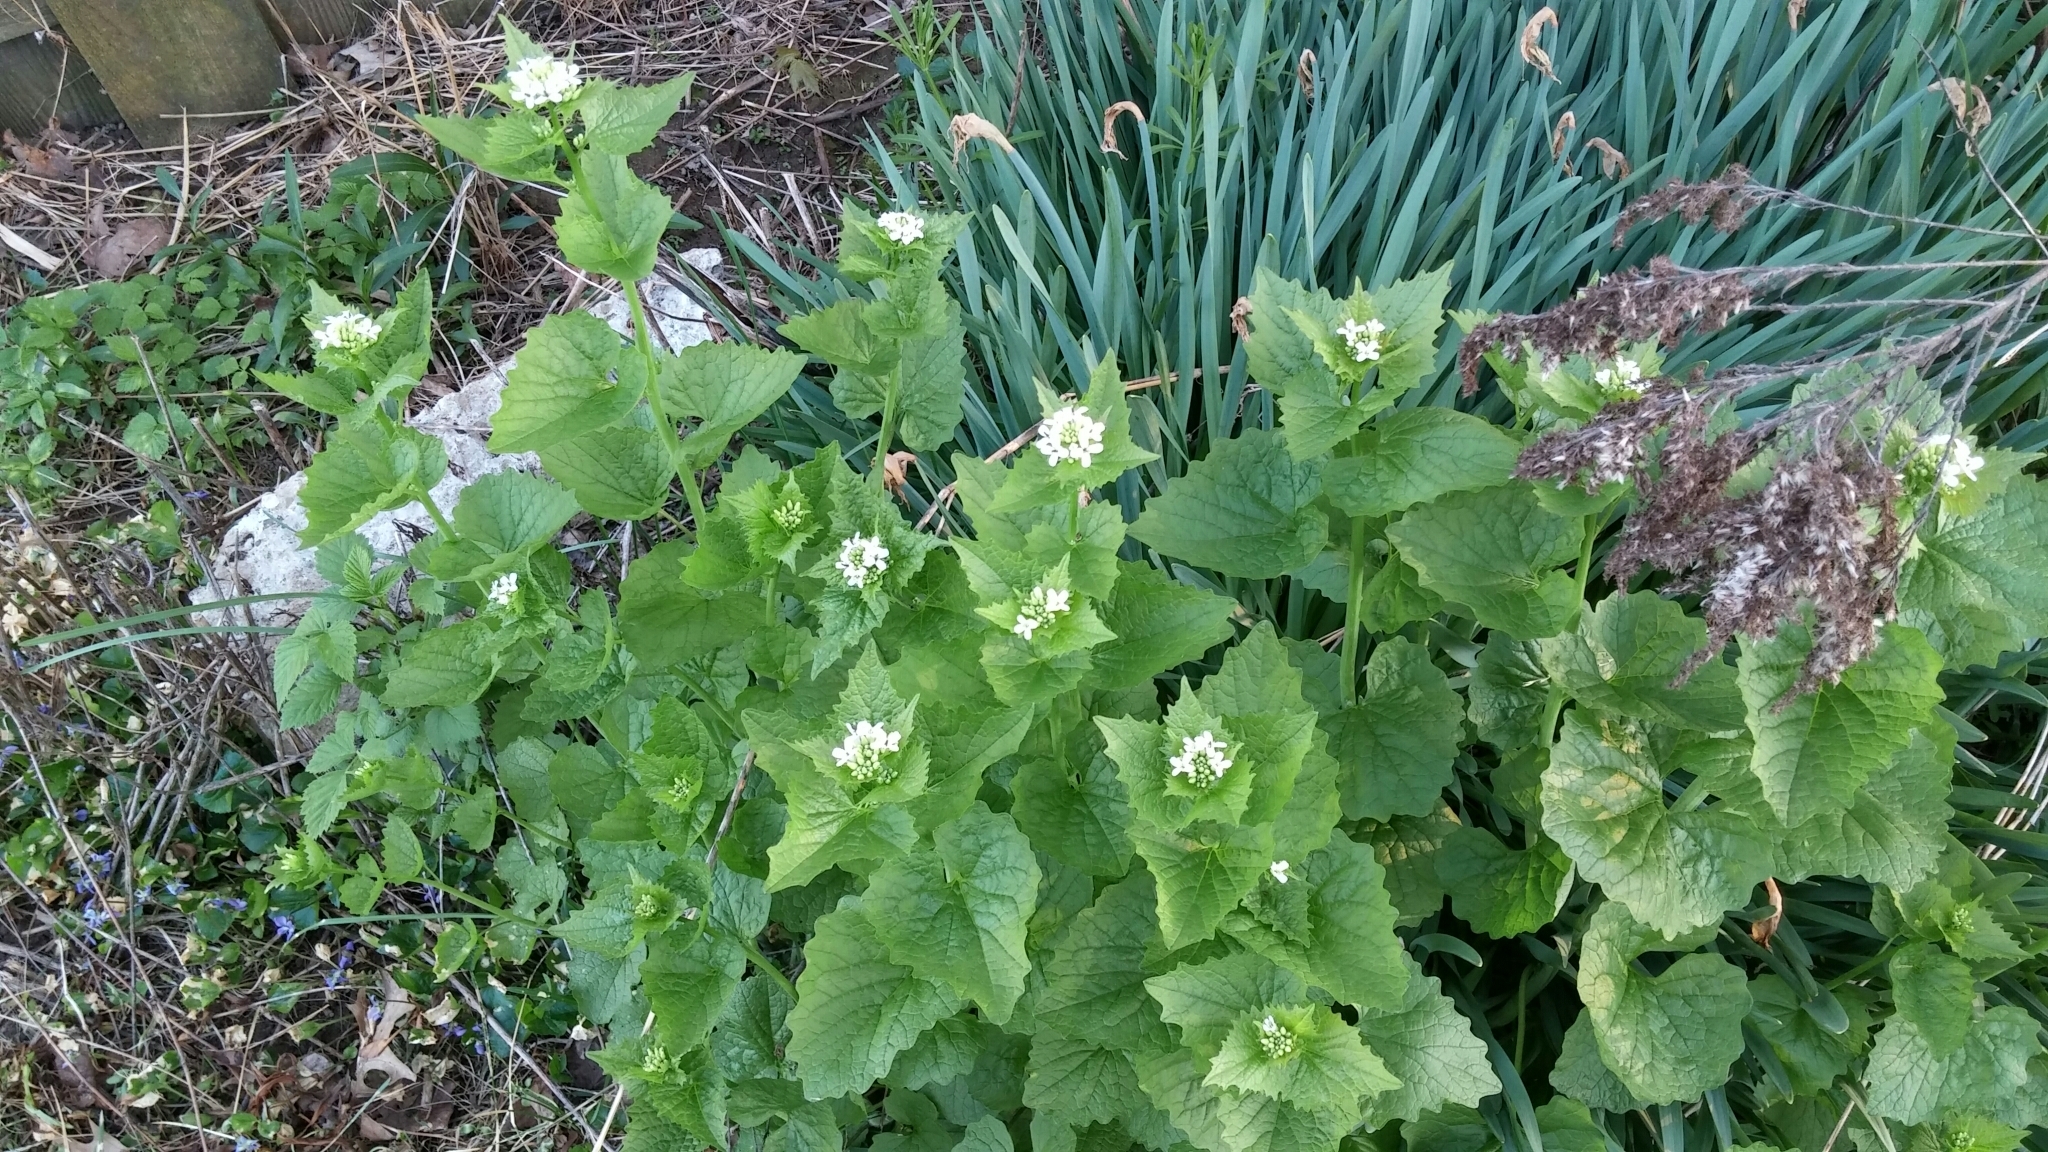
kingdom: Plantae
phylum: Tracheophyta
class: Magnoliopsida
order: Brassicales
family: Brassicaceae
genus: Alliaria
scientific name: Alliaria petiolata
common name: Garlic mustard
